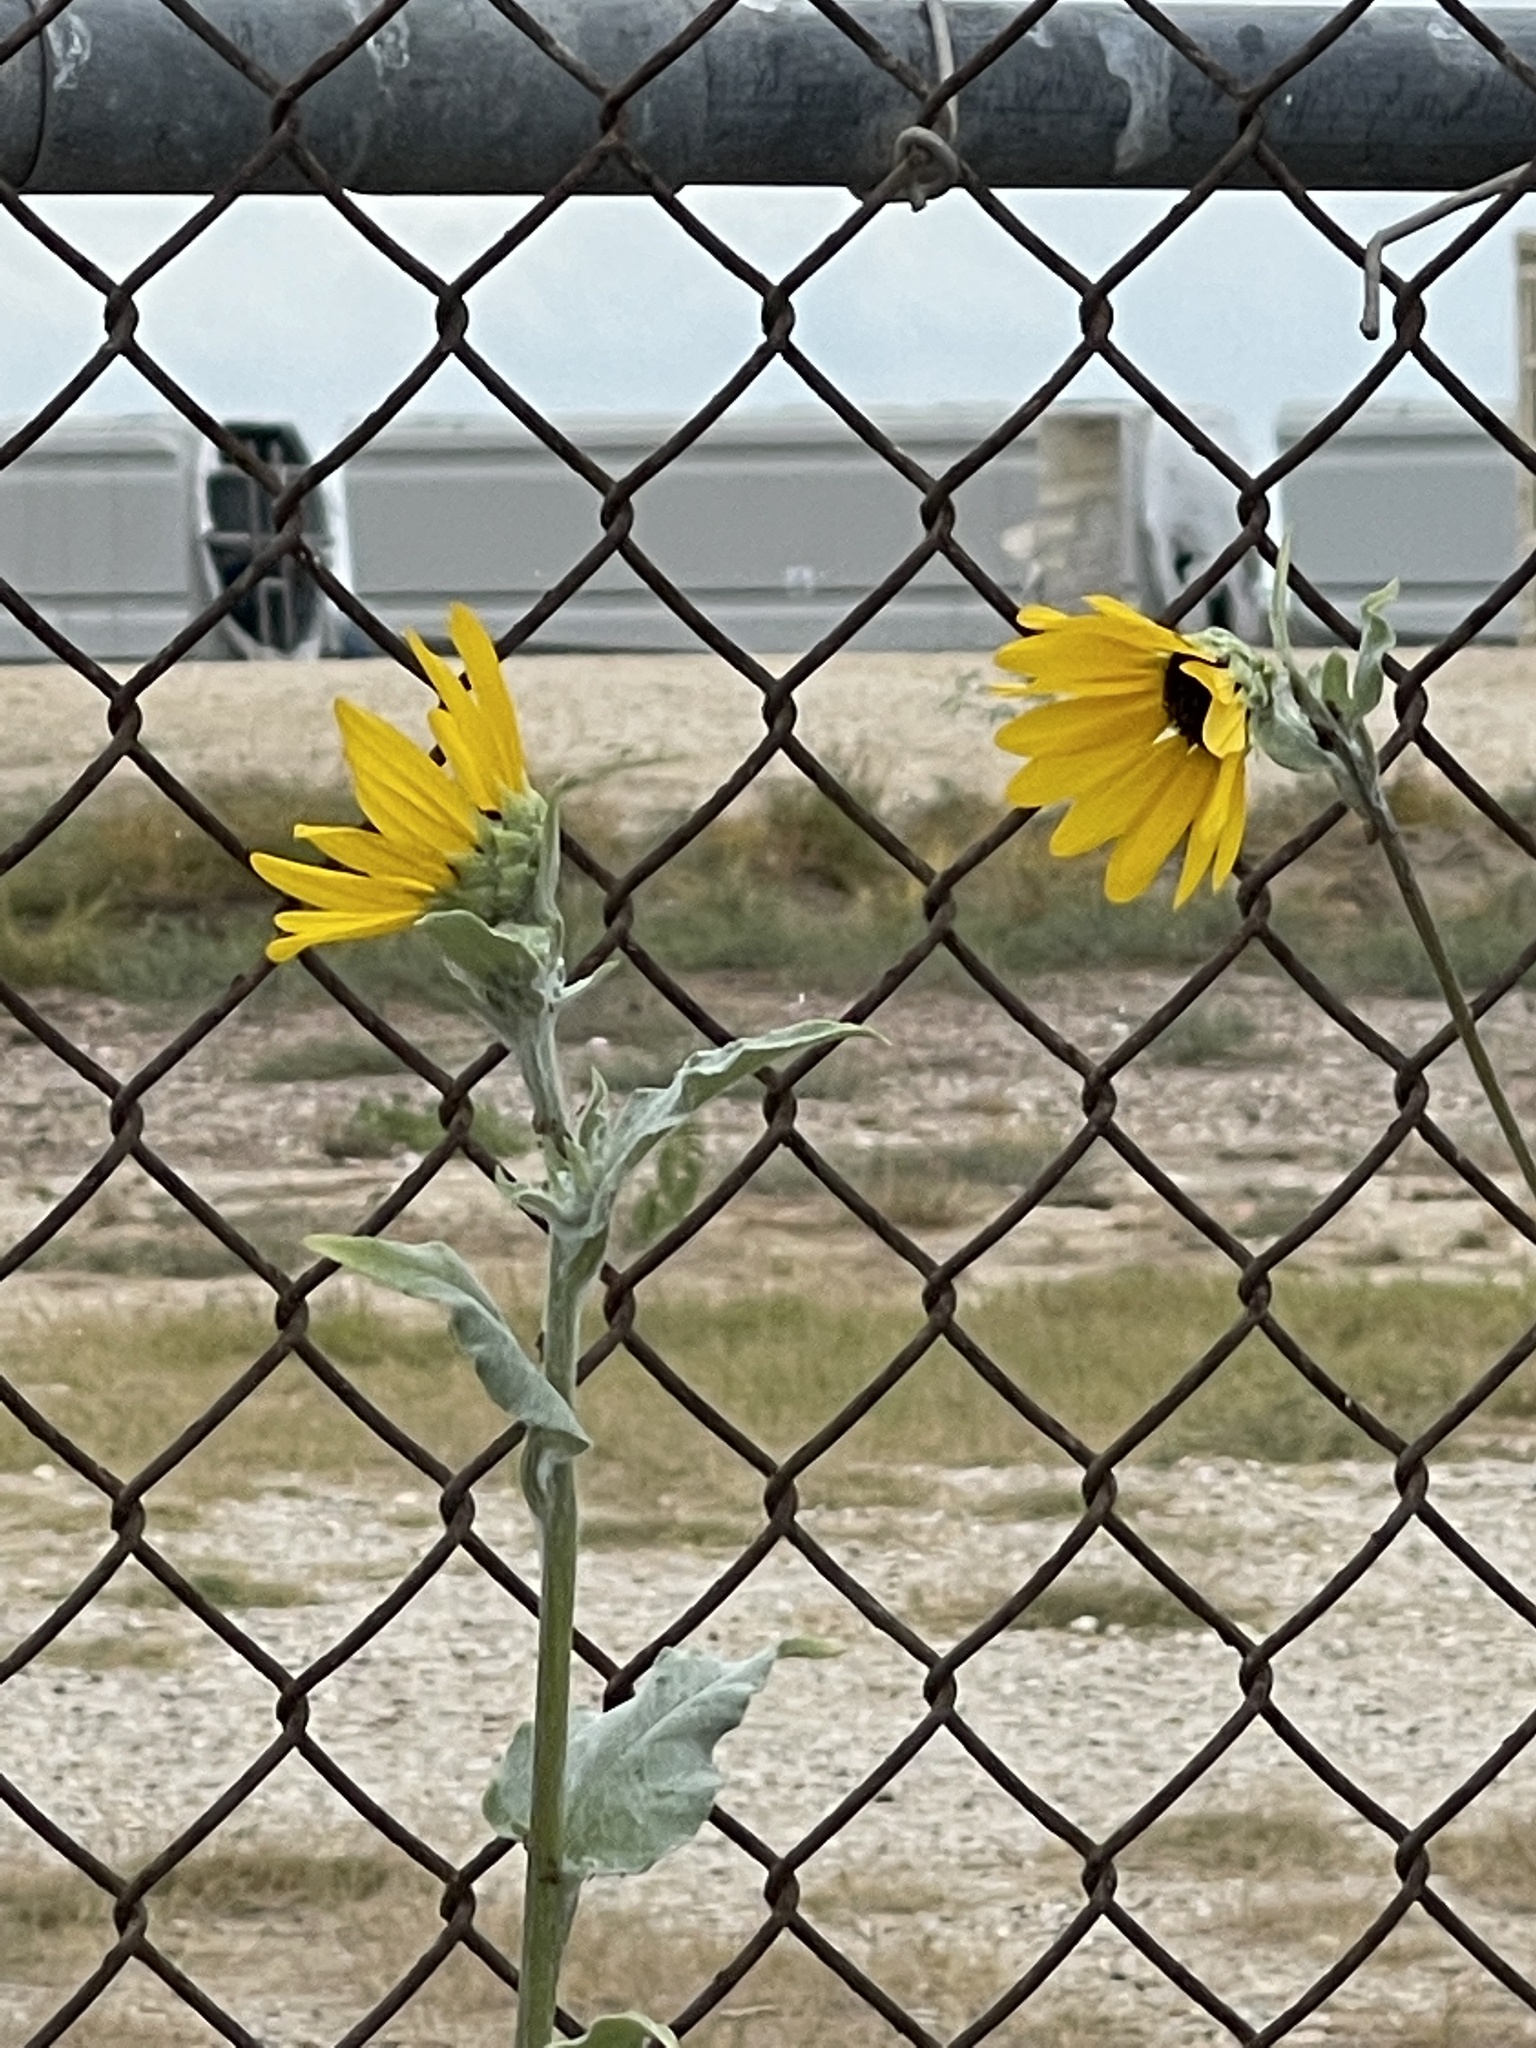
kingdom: Plantae
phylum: Tracheophyta
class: Magnoliopsida
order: Asterales
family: Asteraceae
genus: Helianthus
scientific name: Helianthus argophyllus
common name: Silverleaf sunflower
